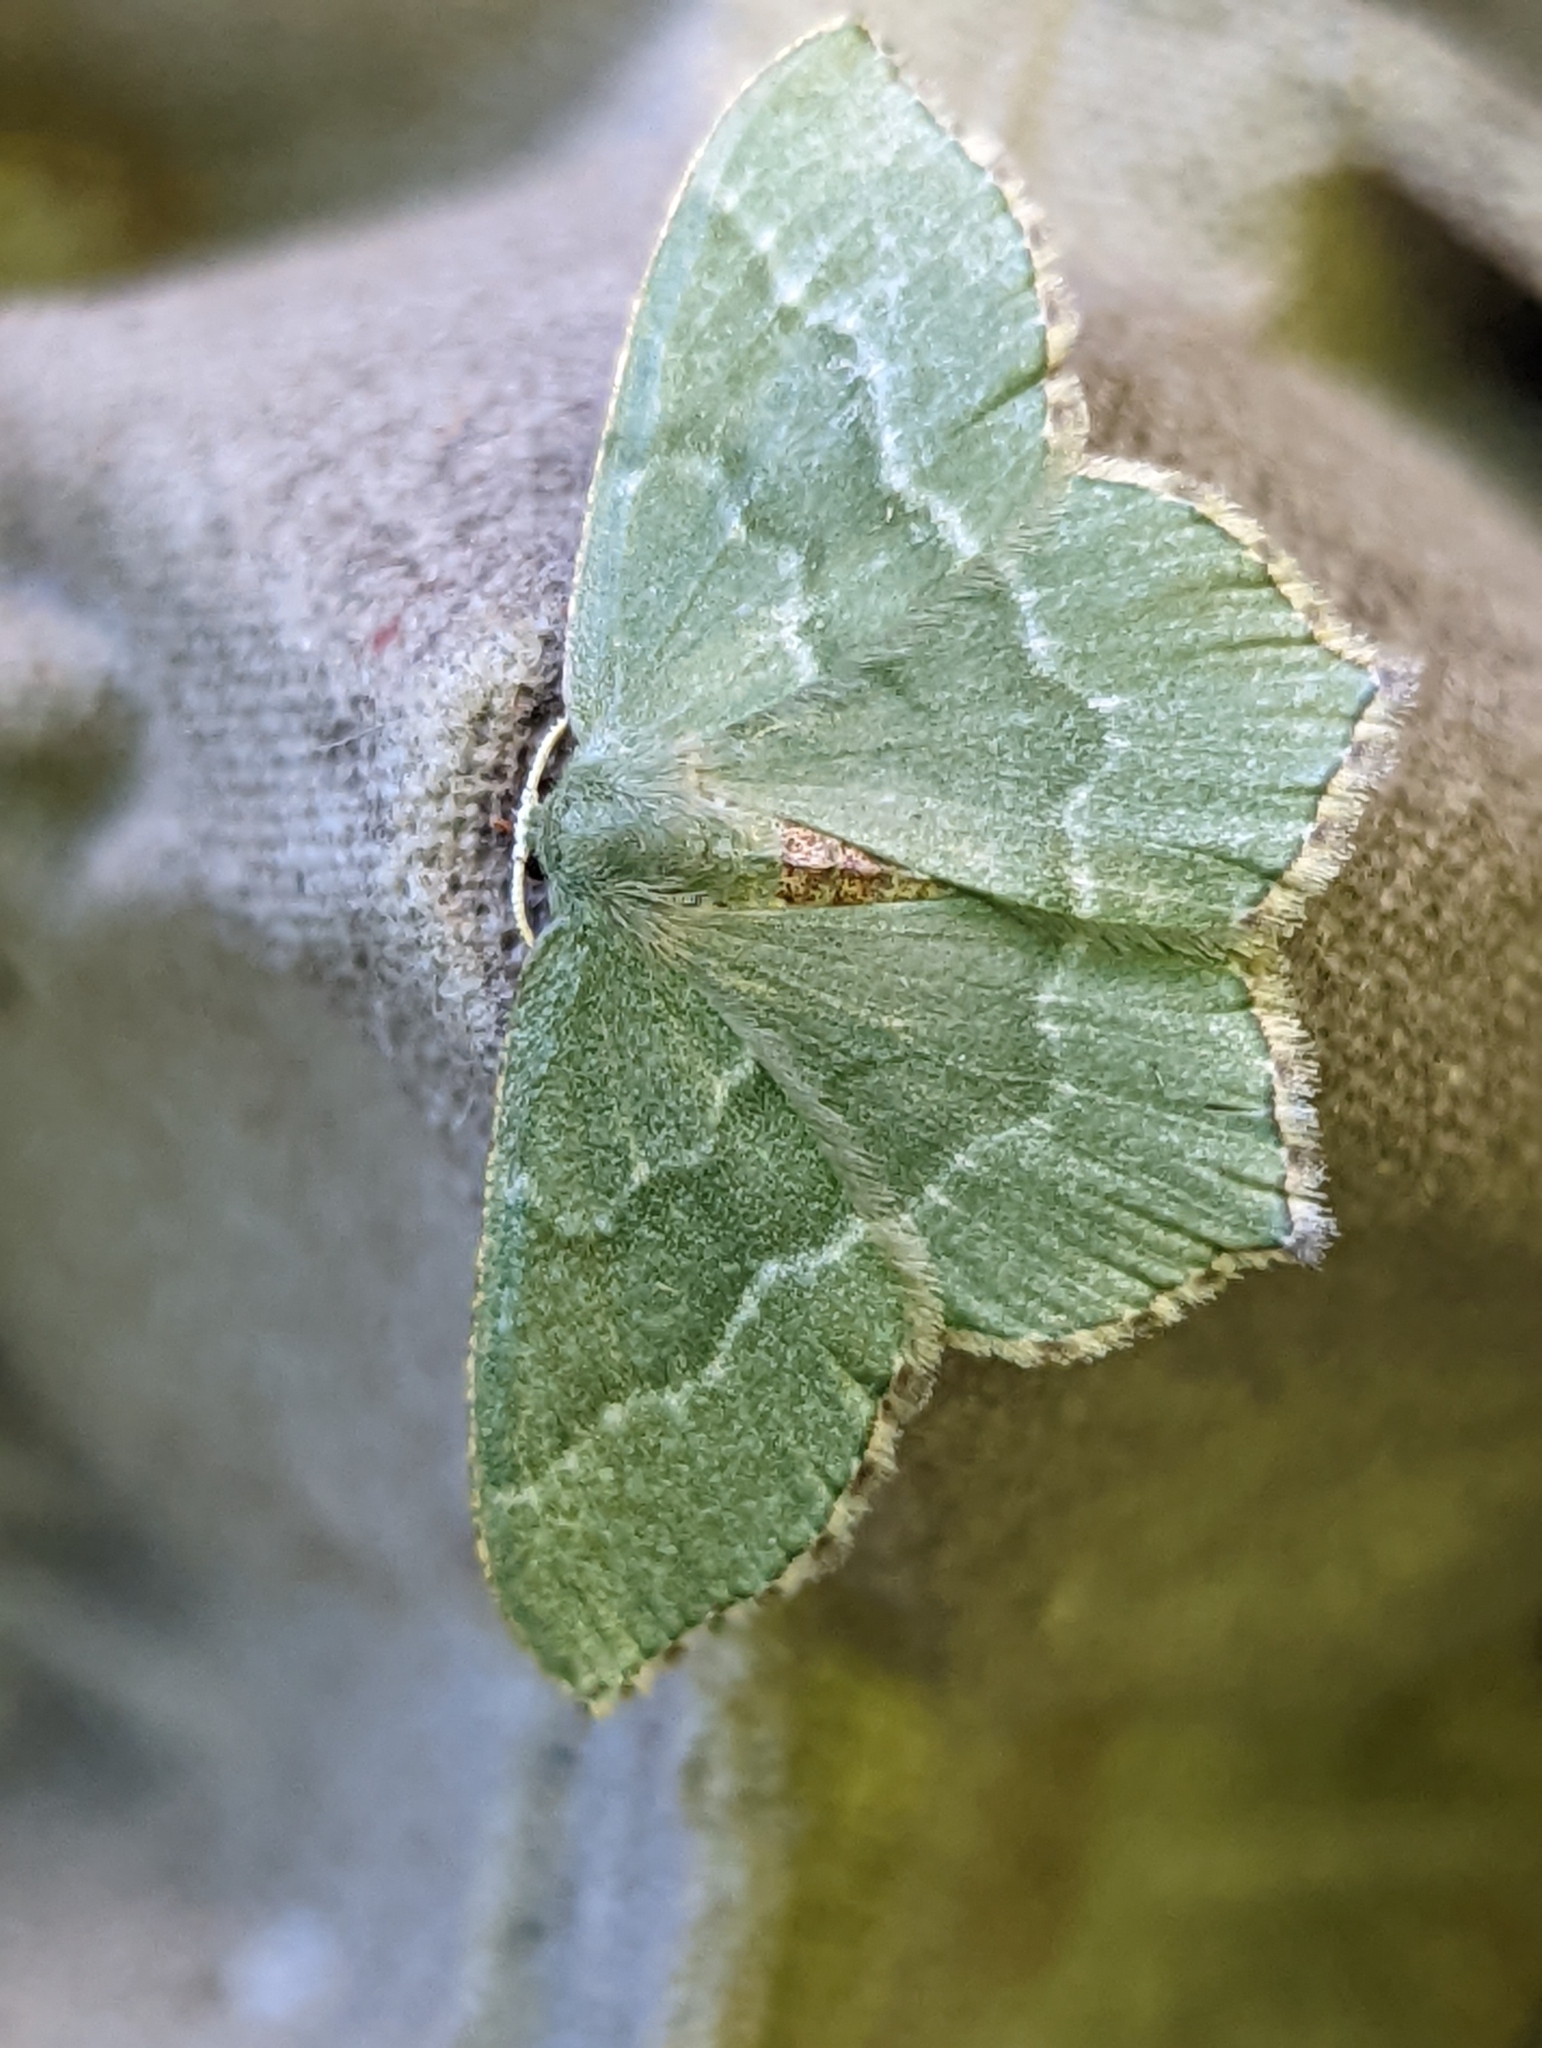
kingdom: Animalia
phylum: Arthropoda
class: Insecta
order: Lepidoptera
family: Geometridae
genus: Hemithea
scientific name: Hemithea aestivaria
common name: Common emerald
